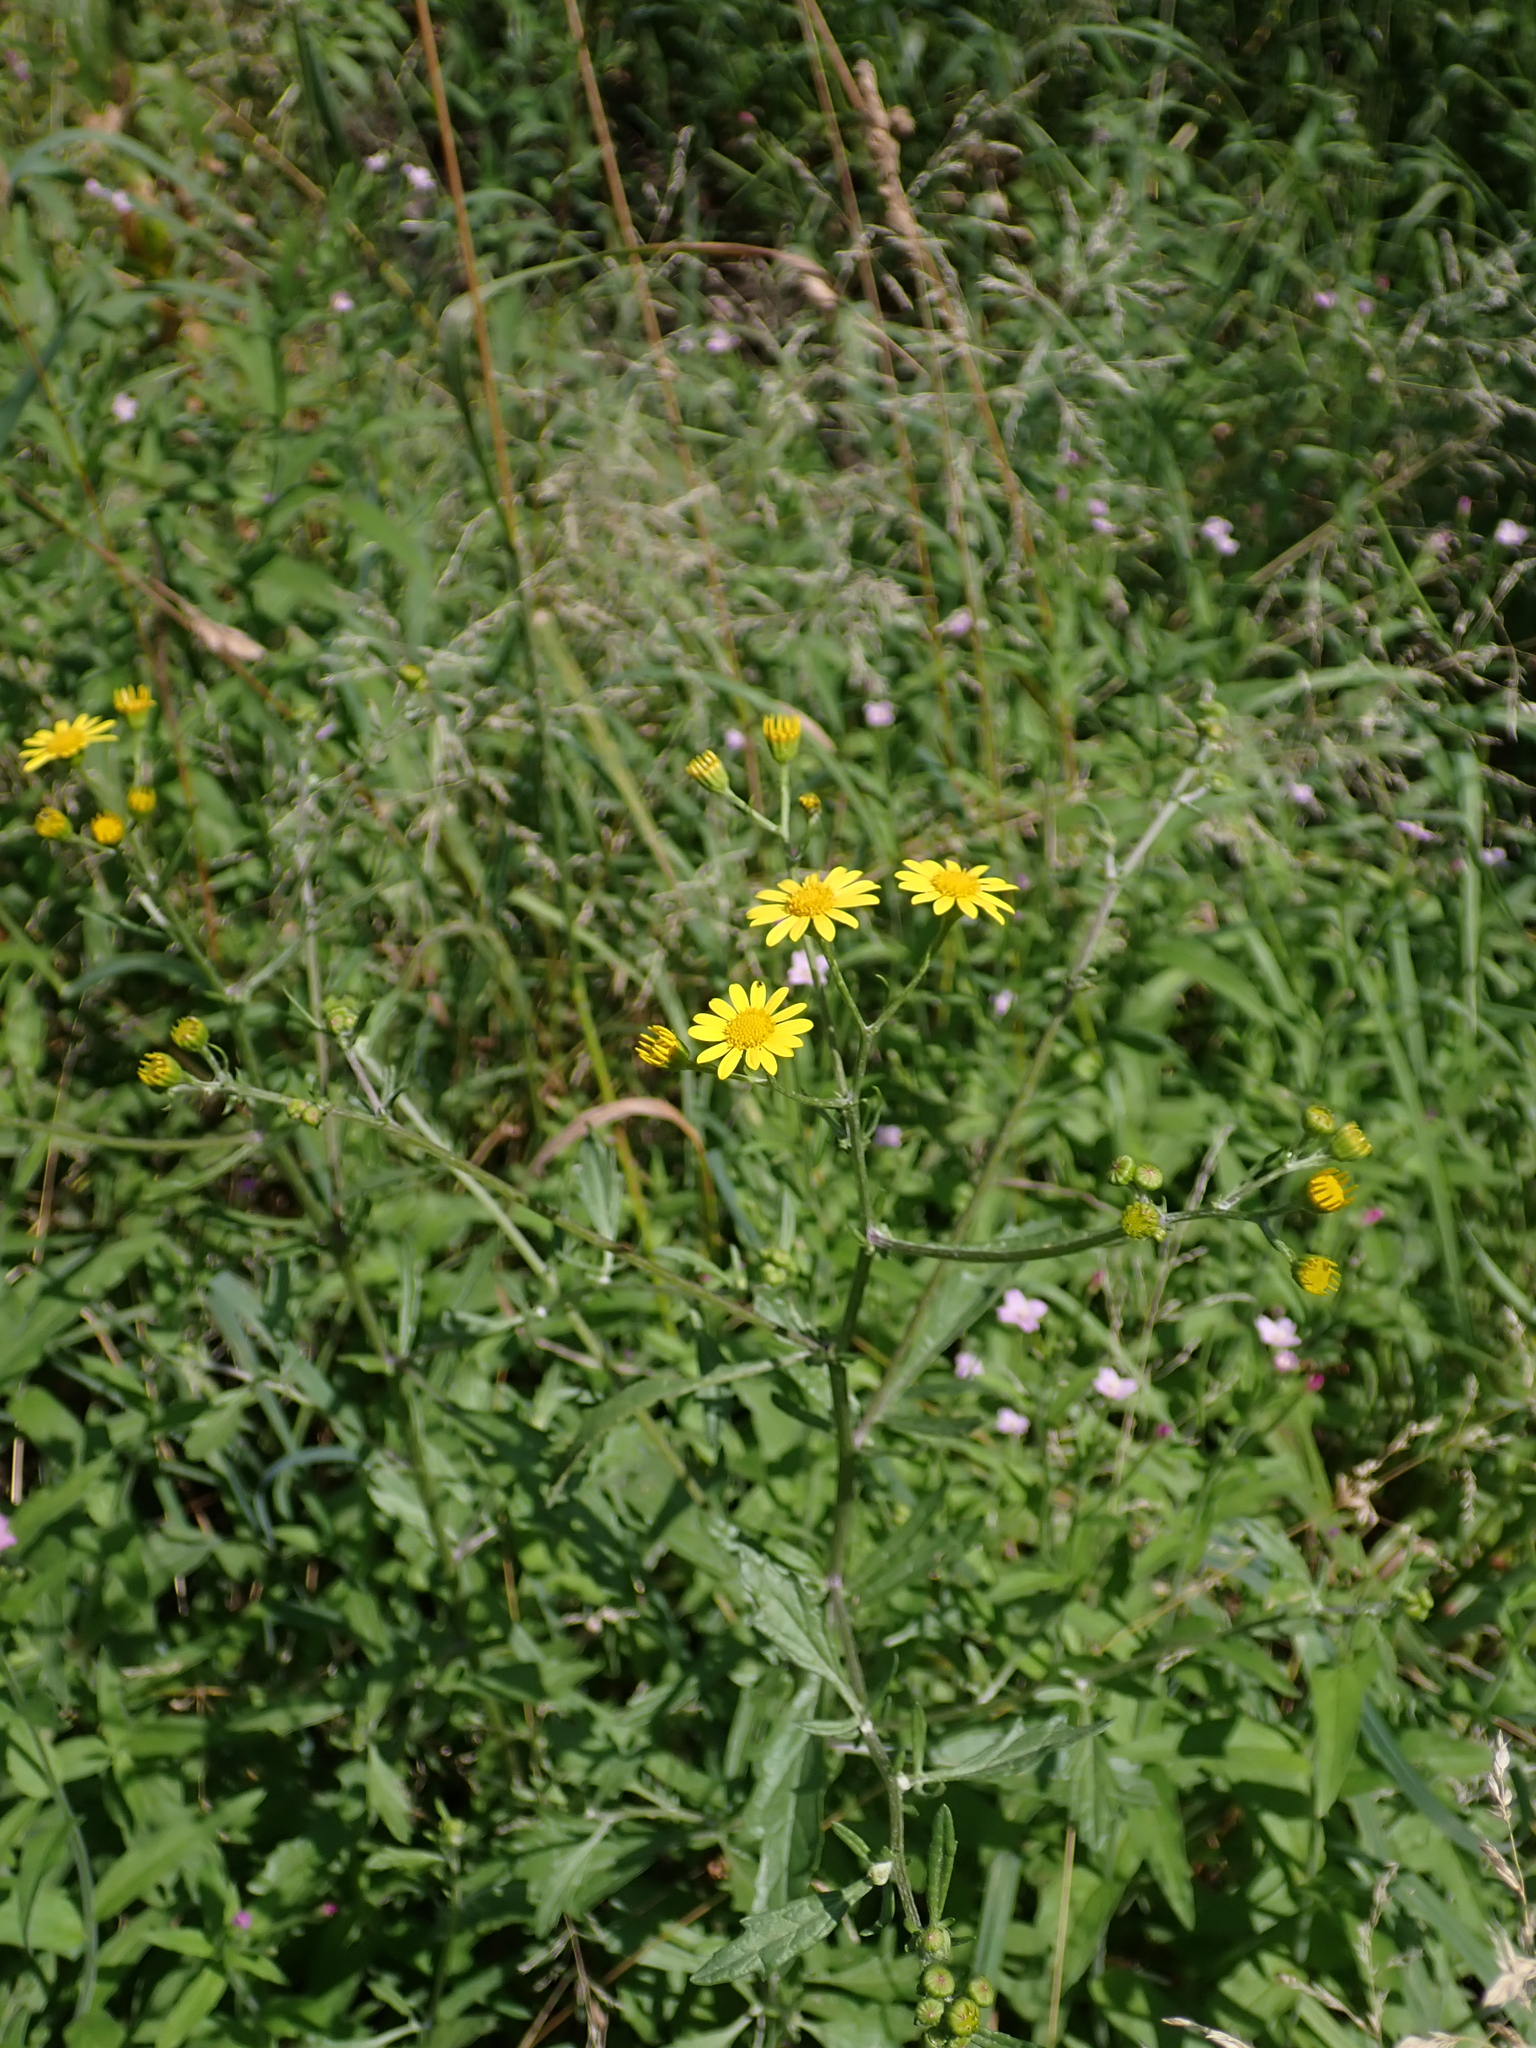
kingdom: Plantae
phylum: Tracheophyta
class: Magnoliopsida
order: Asterales
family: Asteraceae
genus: Jacobaea
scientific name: Jacobaea erratica
